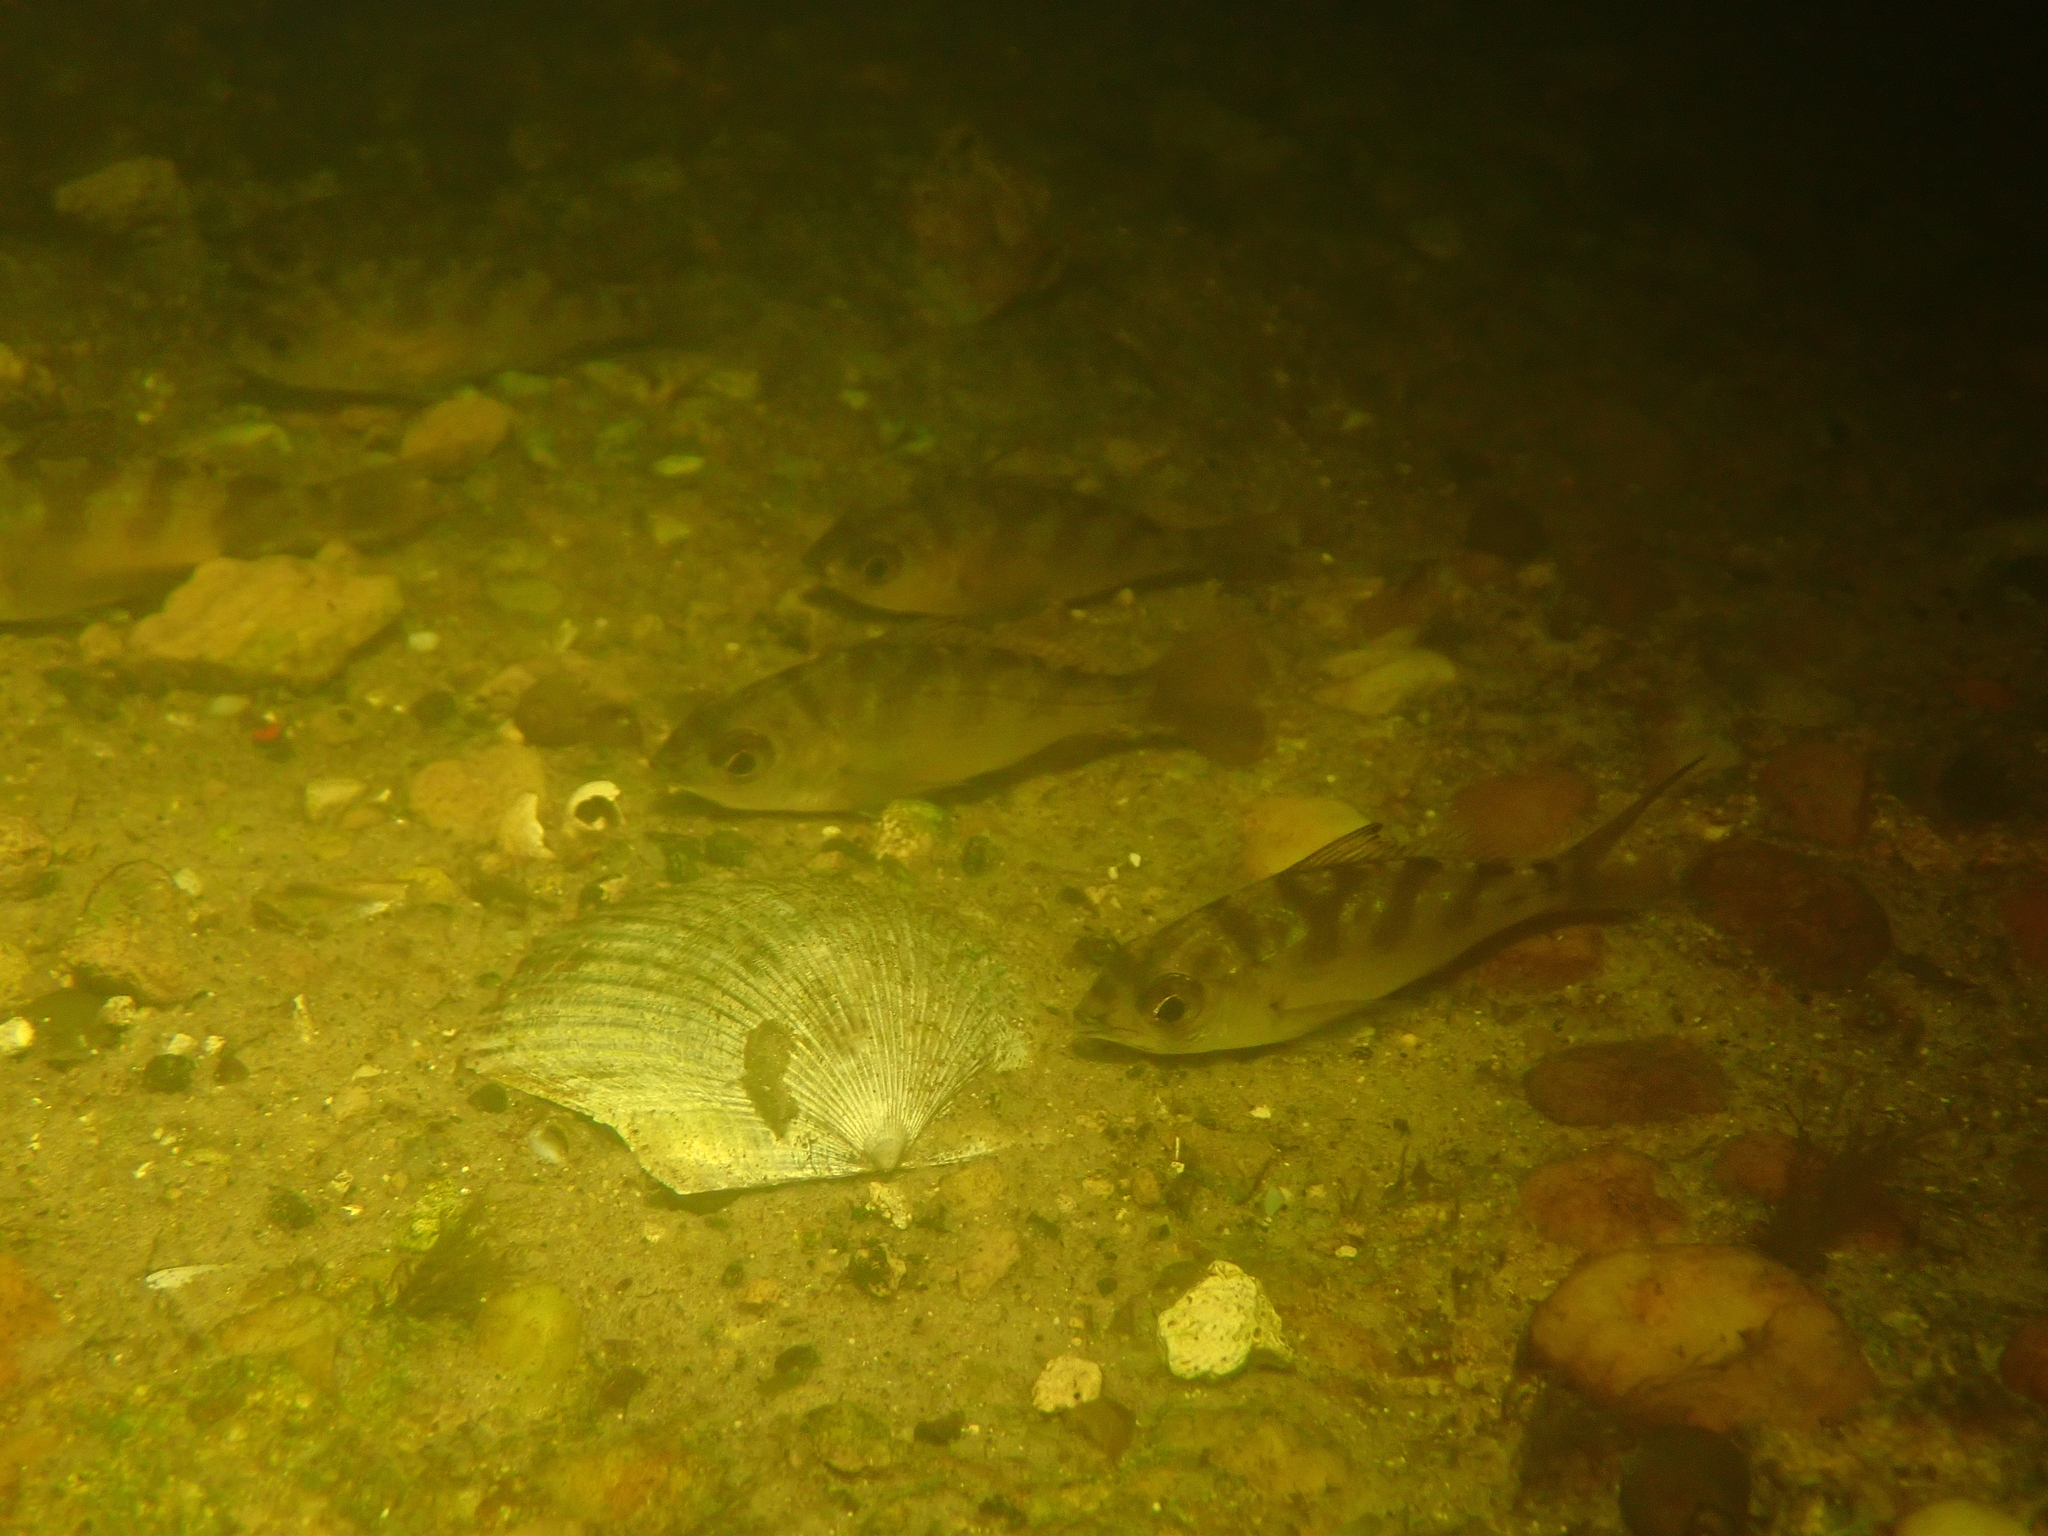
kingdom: Animalia
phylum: Chordata
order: Perciformes
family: Gerreidae
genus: Eucinostomus
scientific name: Eucinostomus harengulus
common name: Tidewater mojarra
